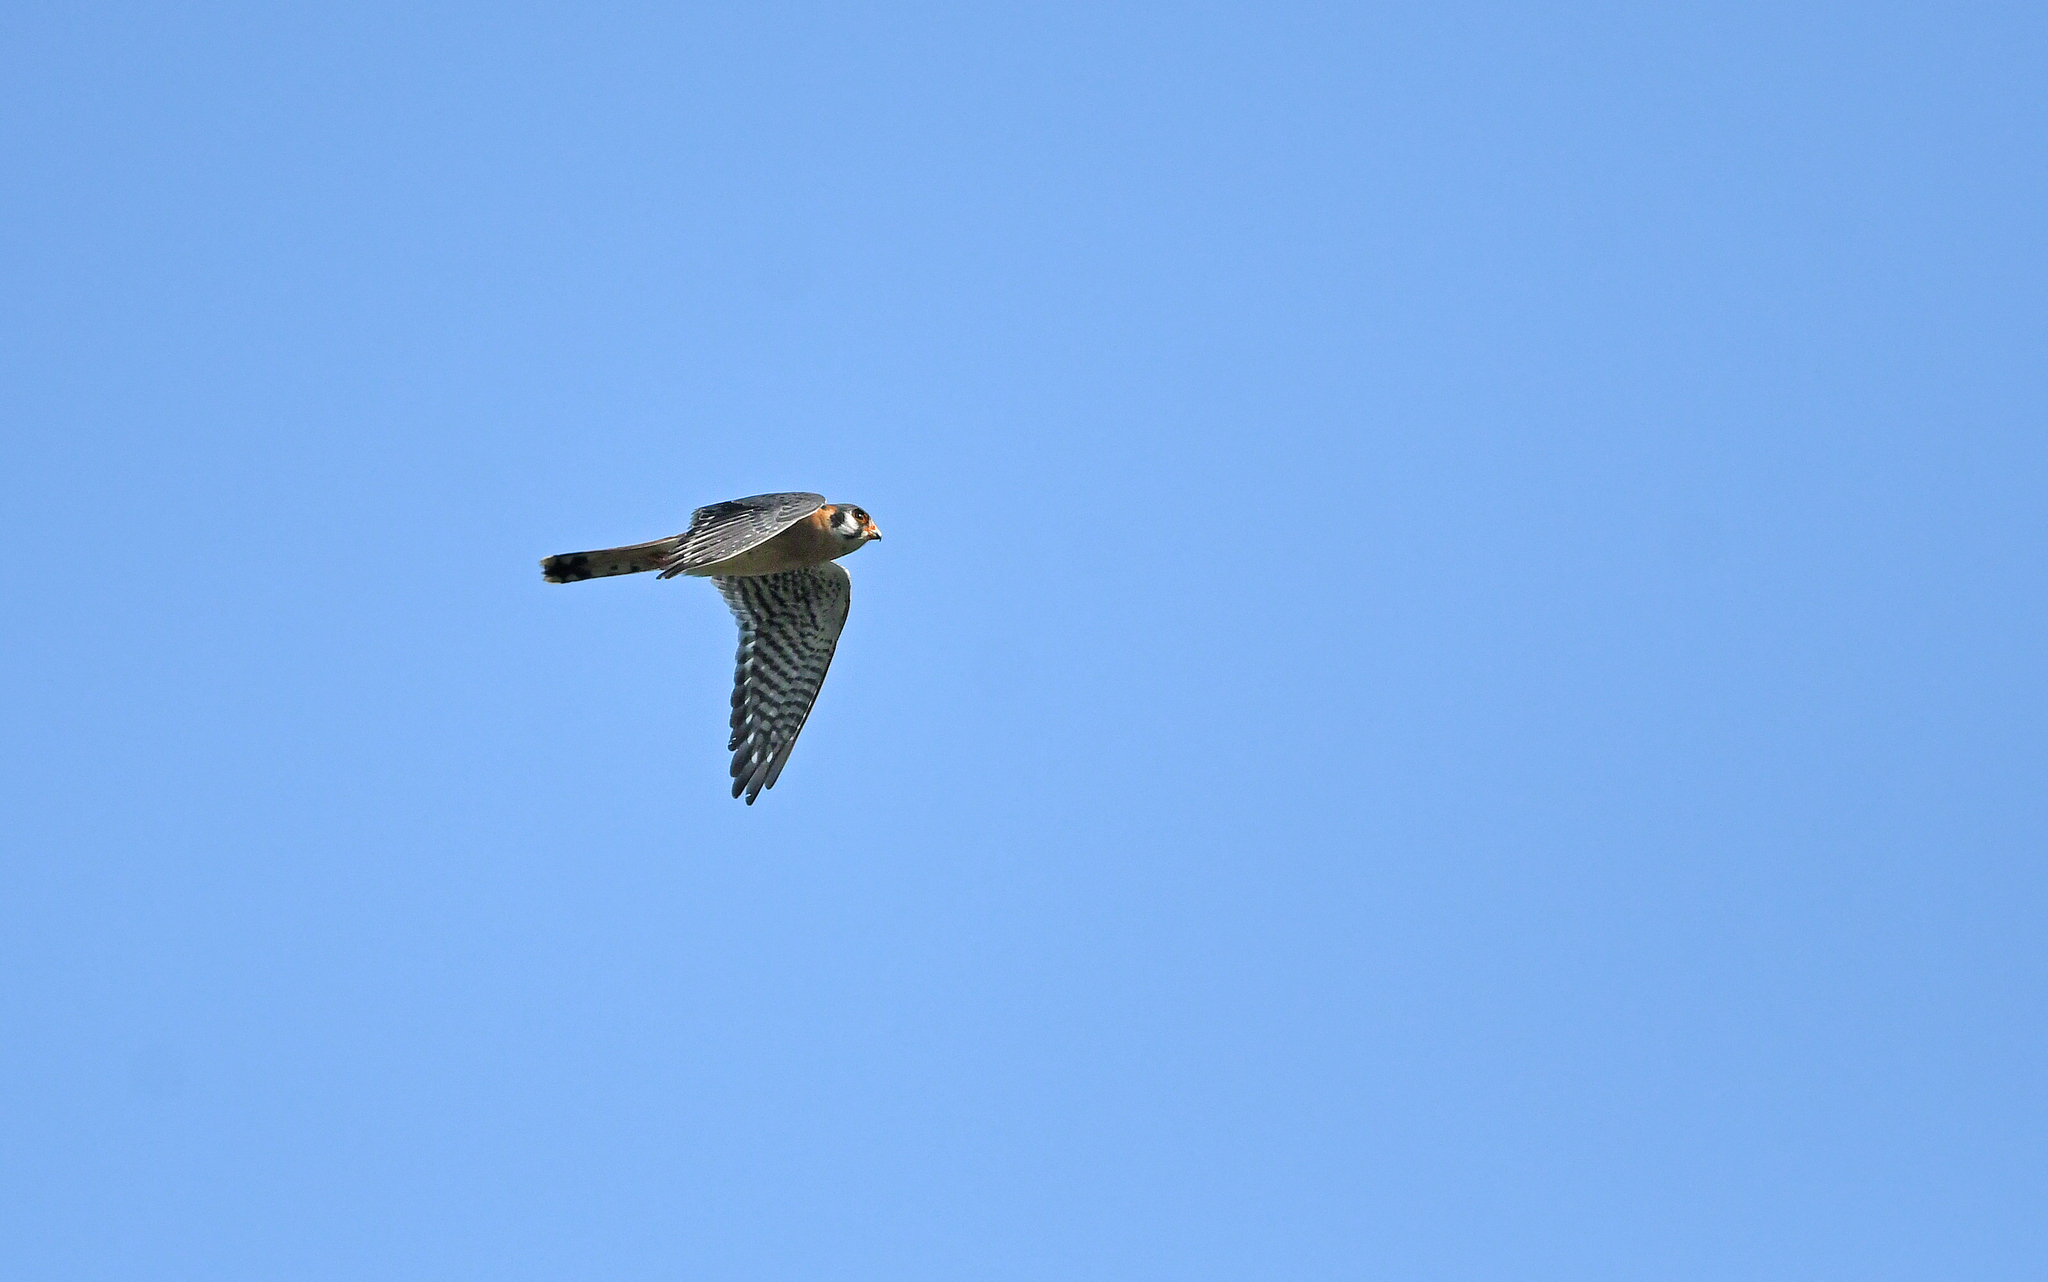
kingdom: Animalia
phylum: Chordata
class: Aves
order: Falconiformes
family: Falconidae
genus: Falco
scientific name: Falco sparverius
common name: American kestrel
